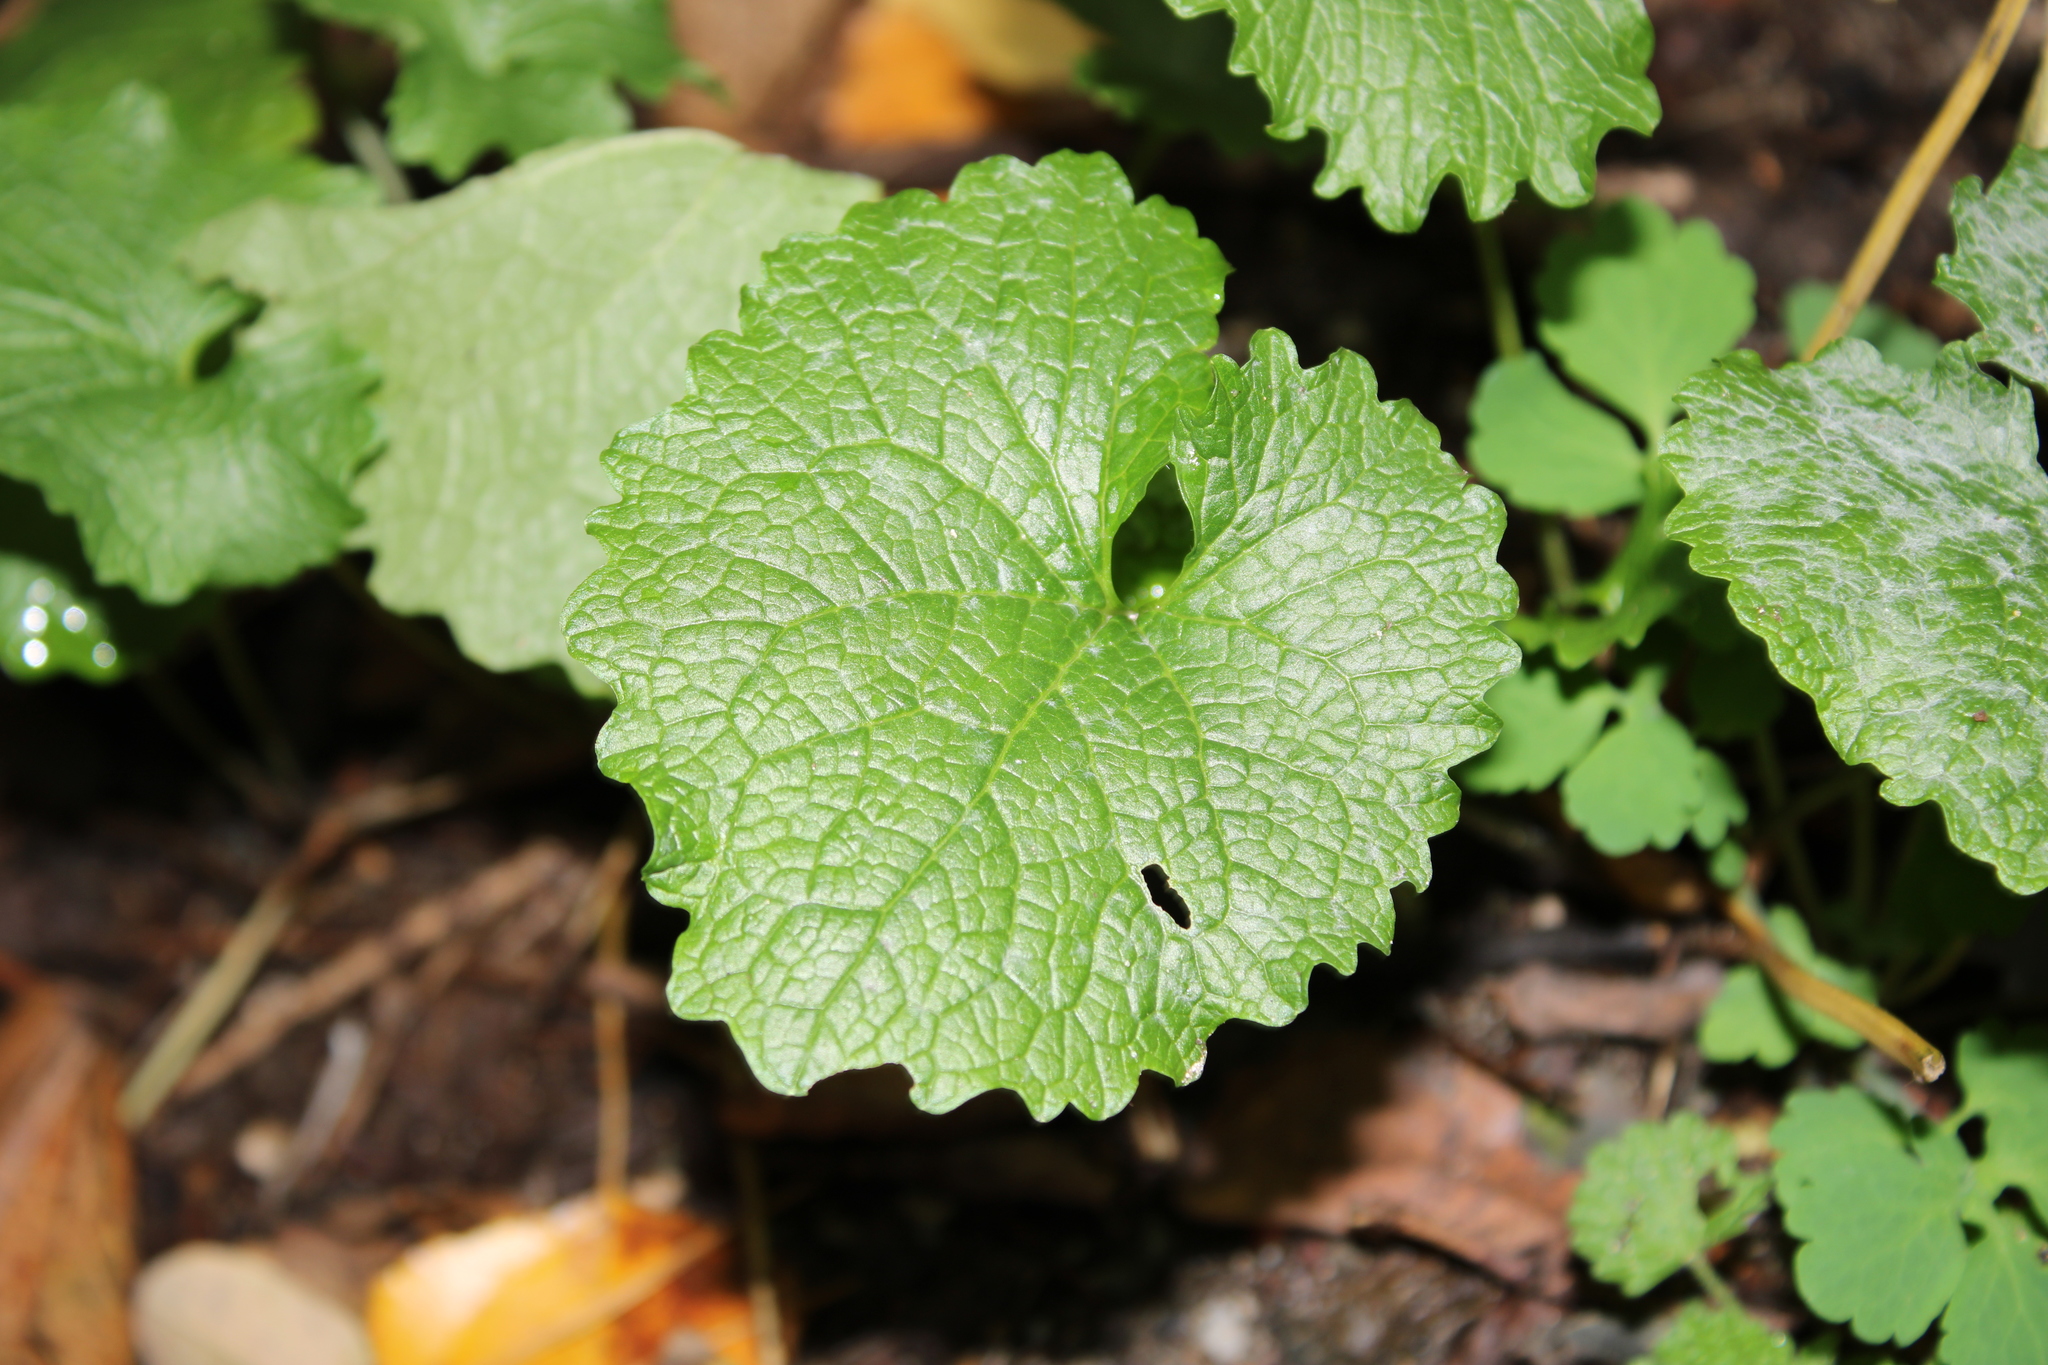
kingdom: Plantae
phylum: Tracheophyta
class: Magnoliopsida
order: Brassicales
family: Brassicaceae
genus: Alliaria
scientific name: Alliaria petiolata
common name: Garlic mustard
